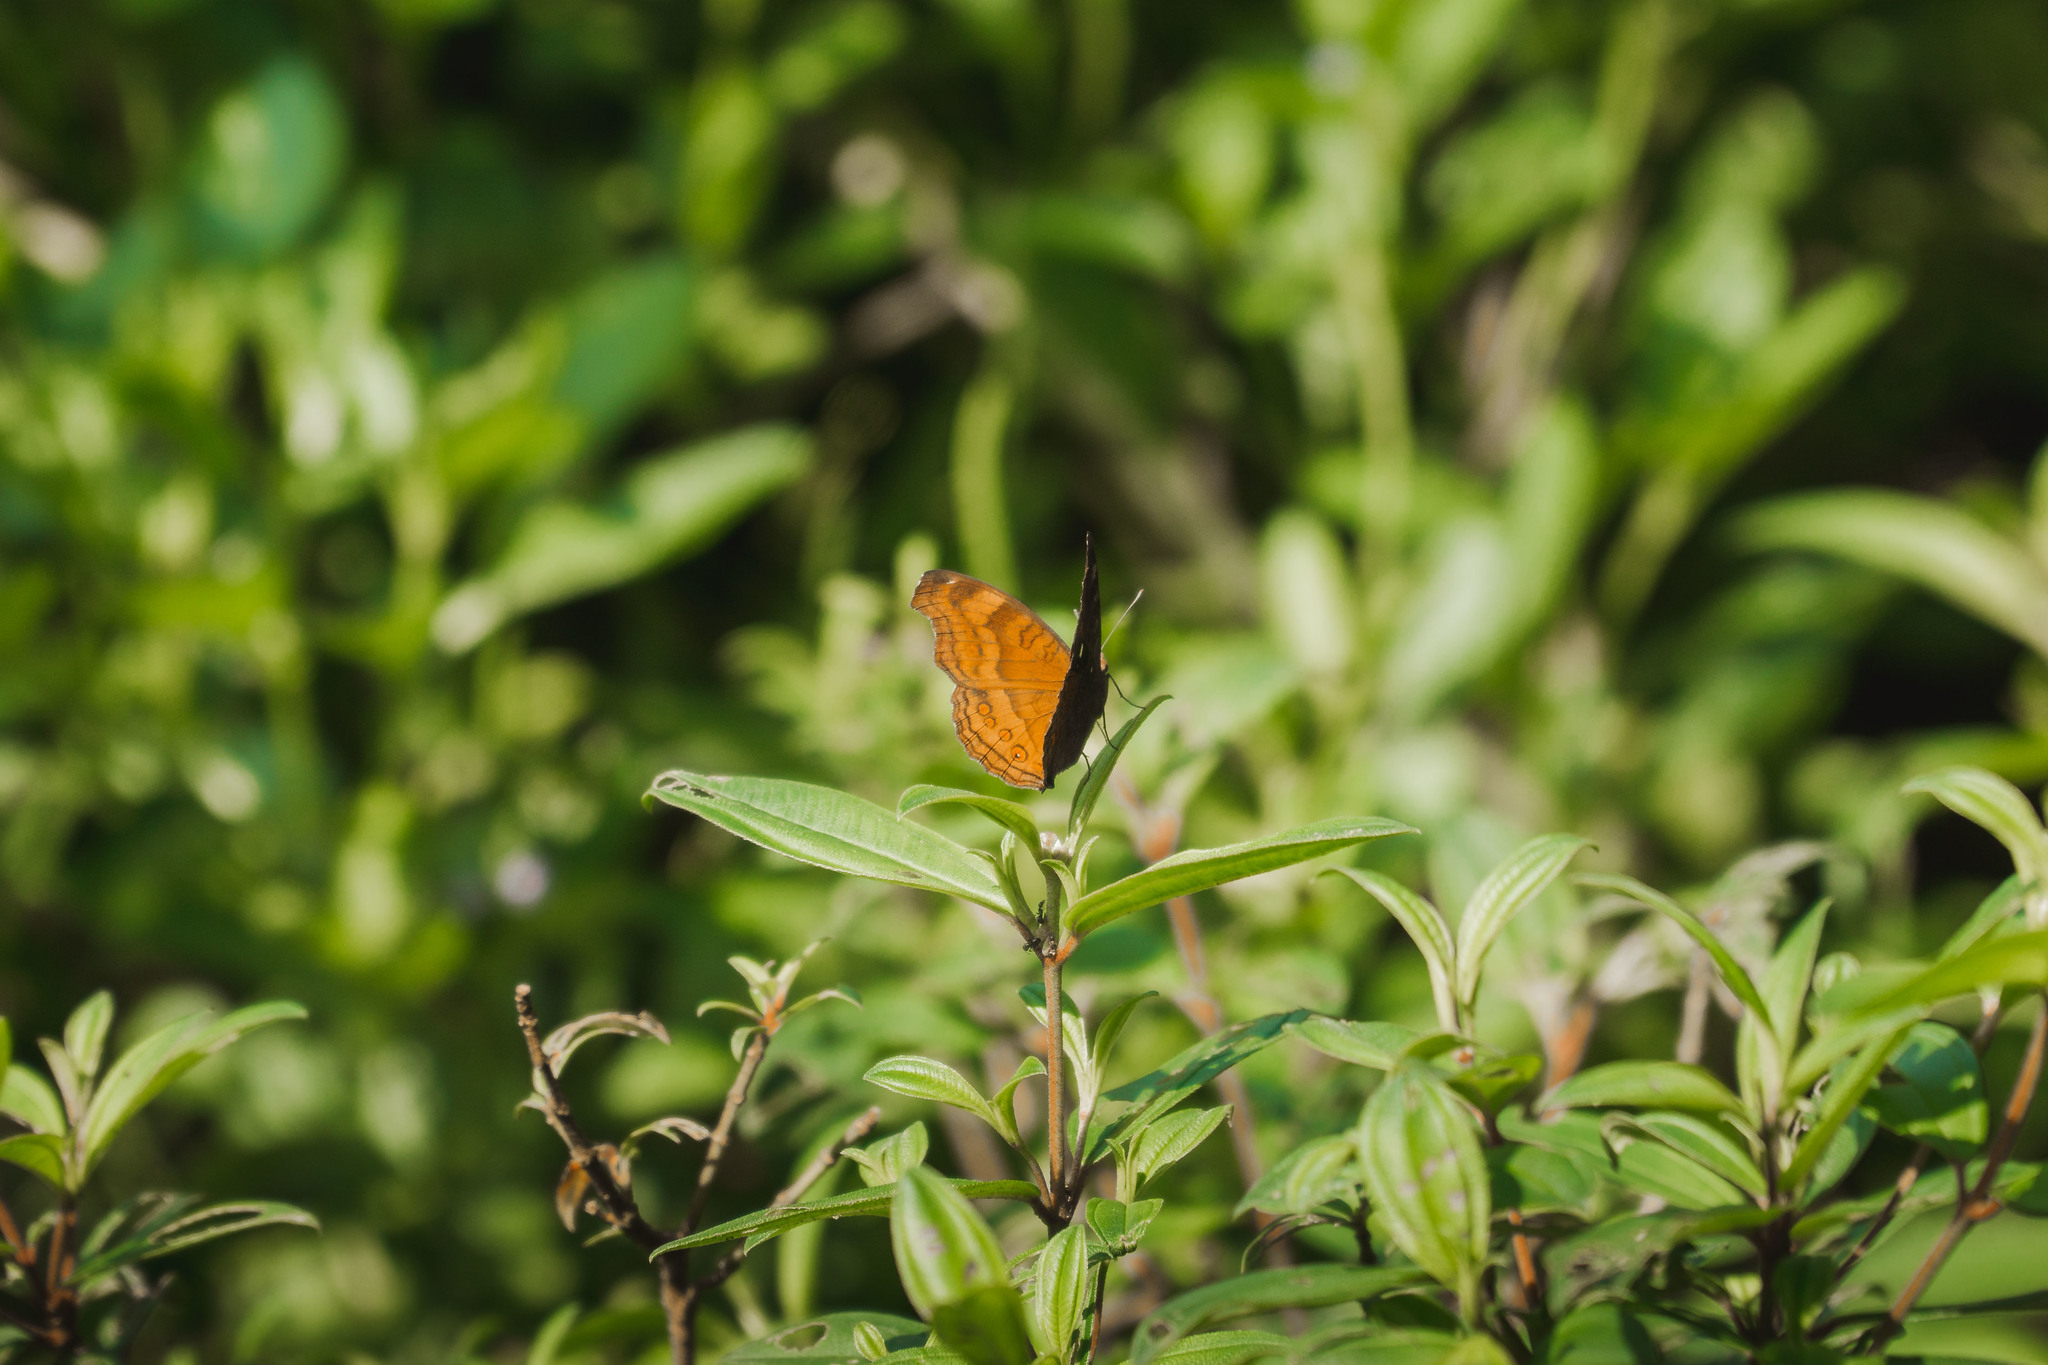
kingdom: Animalia
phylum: Arthropoda
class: Insecta
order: Lepidoptera
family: Nymphalidae
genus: Junonia
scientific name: Junonia hedonia
